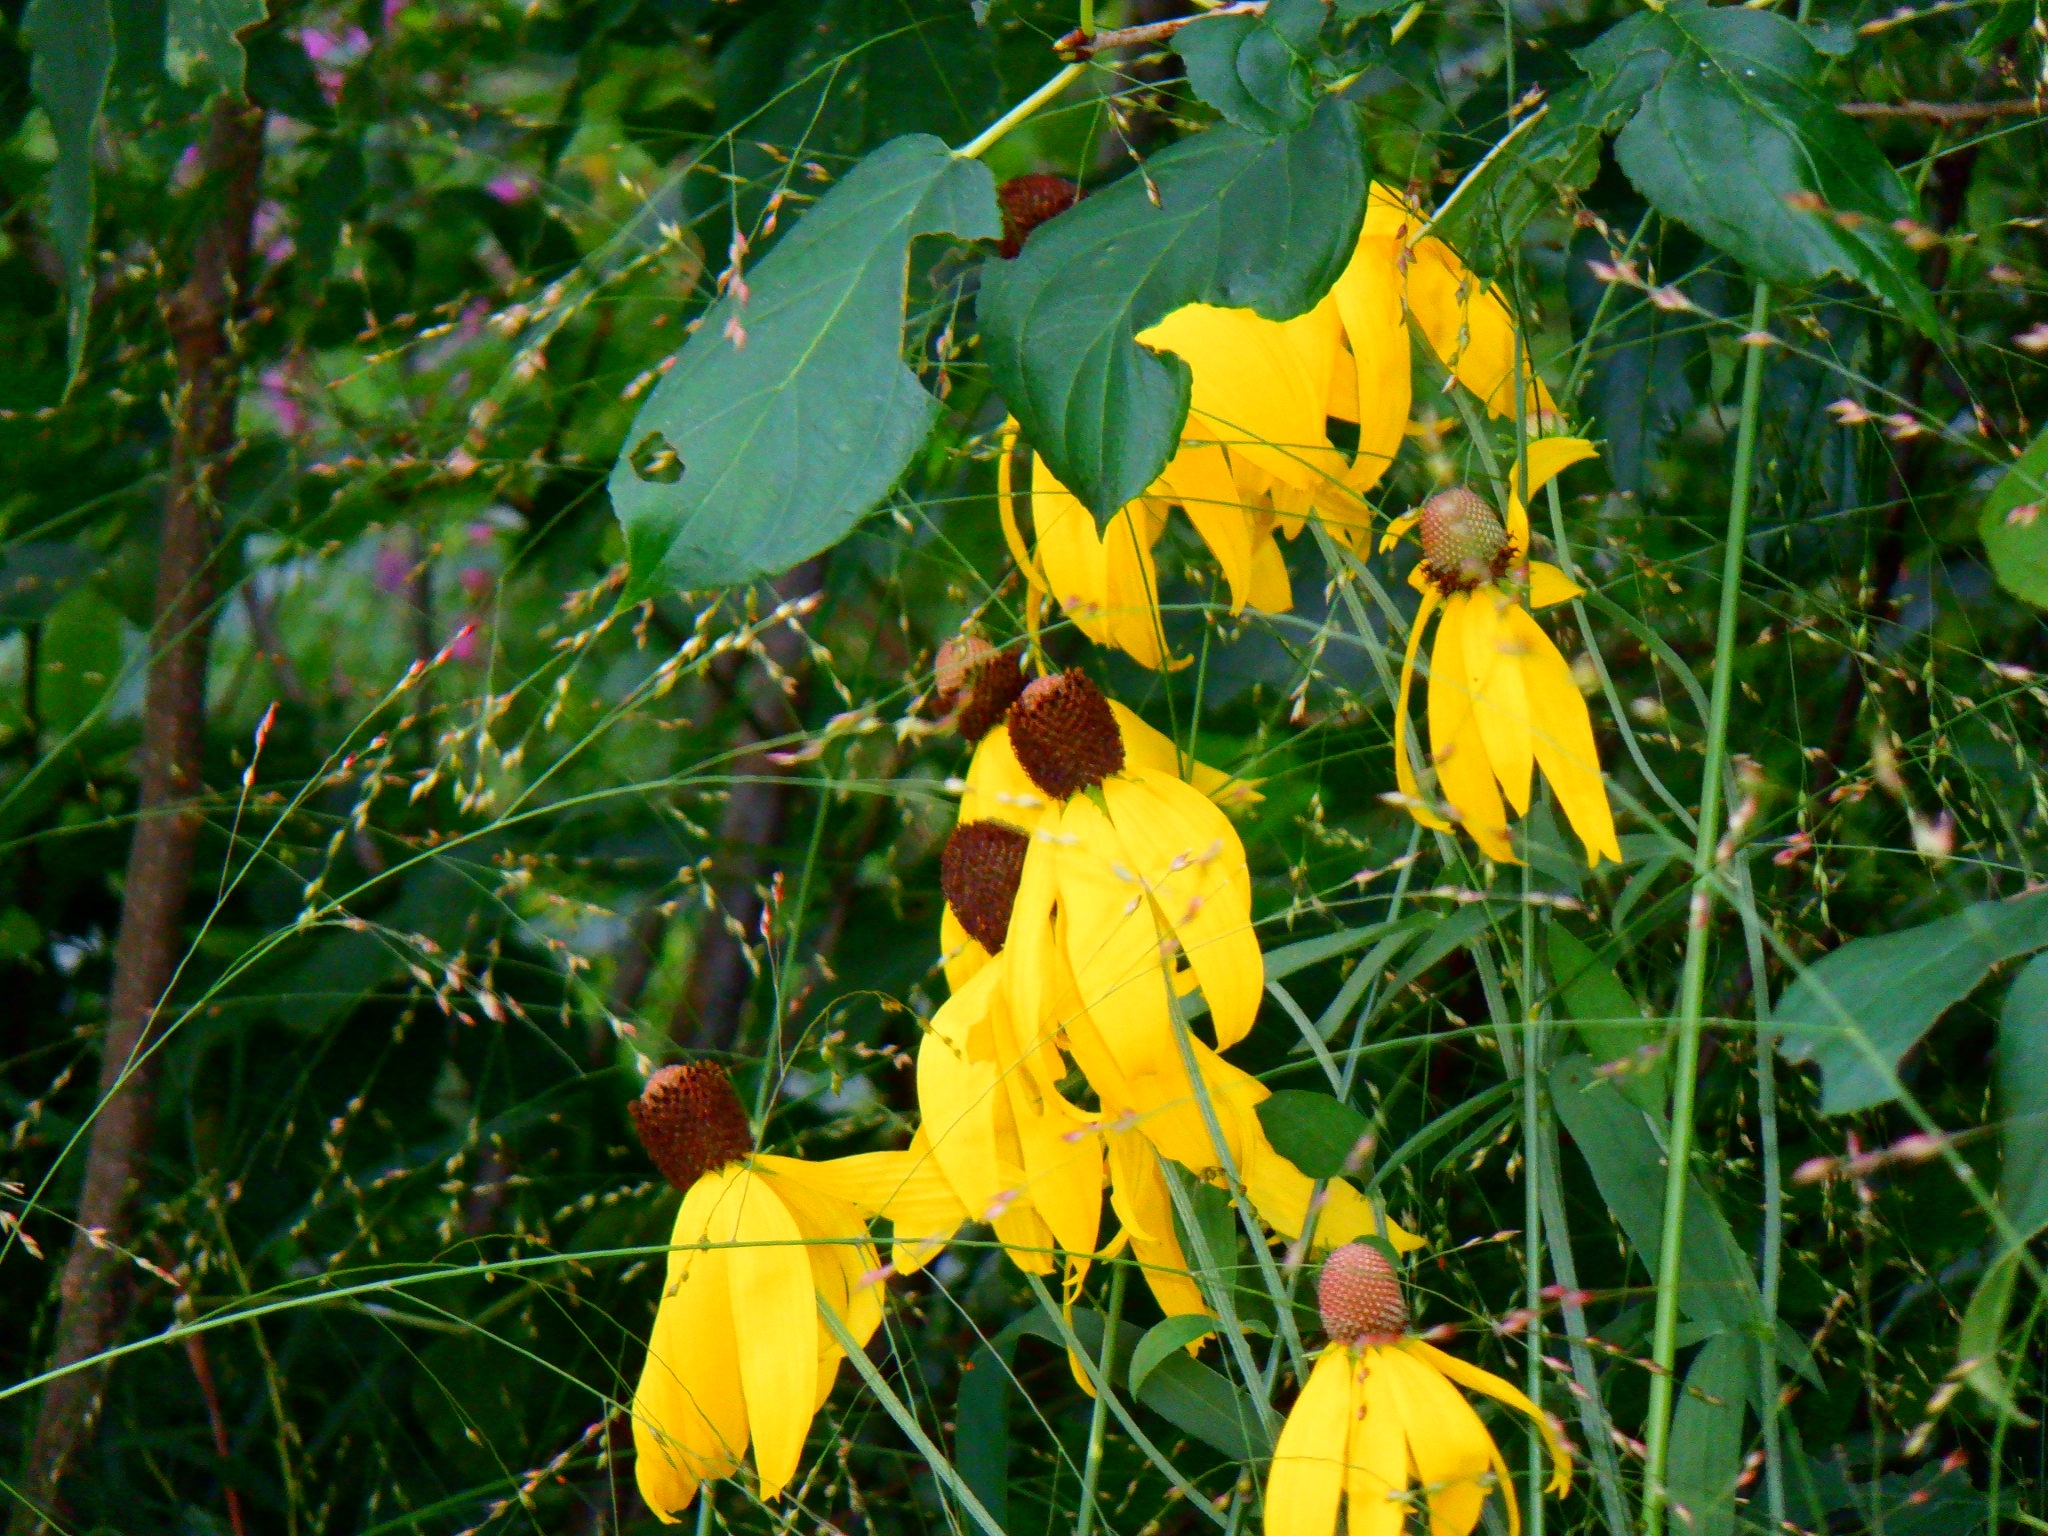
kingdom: Plantae
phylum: Tracheophyta
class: Magnoliopsida
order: Asterales
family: Asteraceae
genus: Ratibida
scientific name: Ratibida pinnata
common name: Drooping prairie-coneflower
